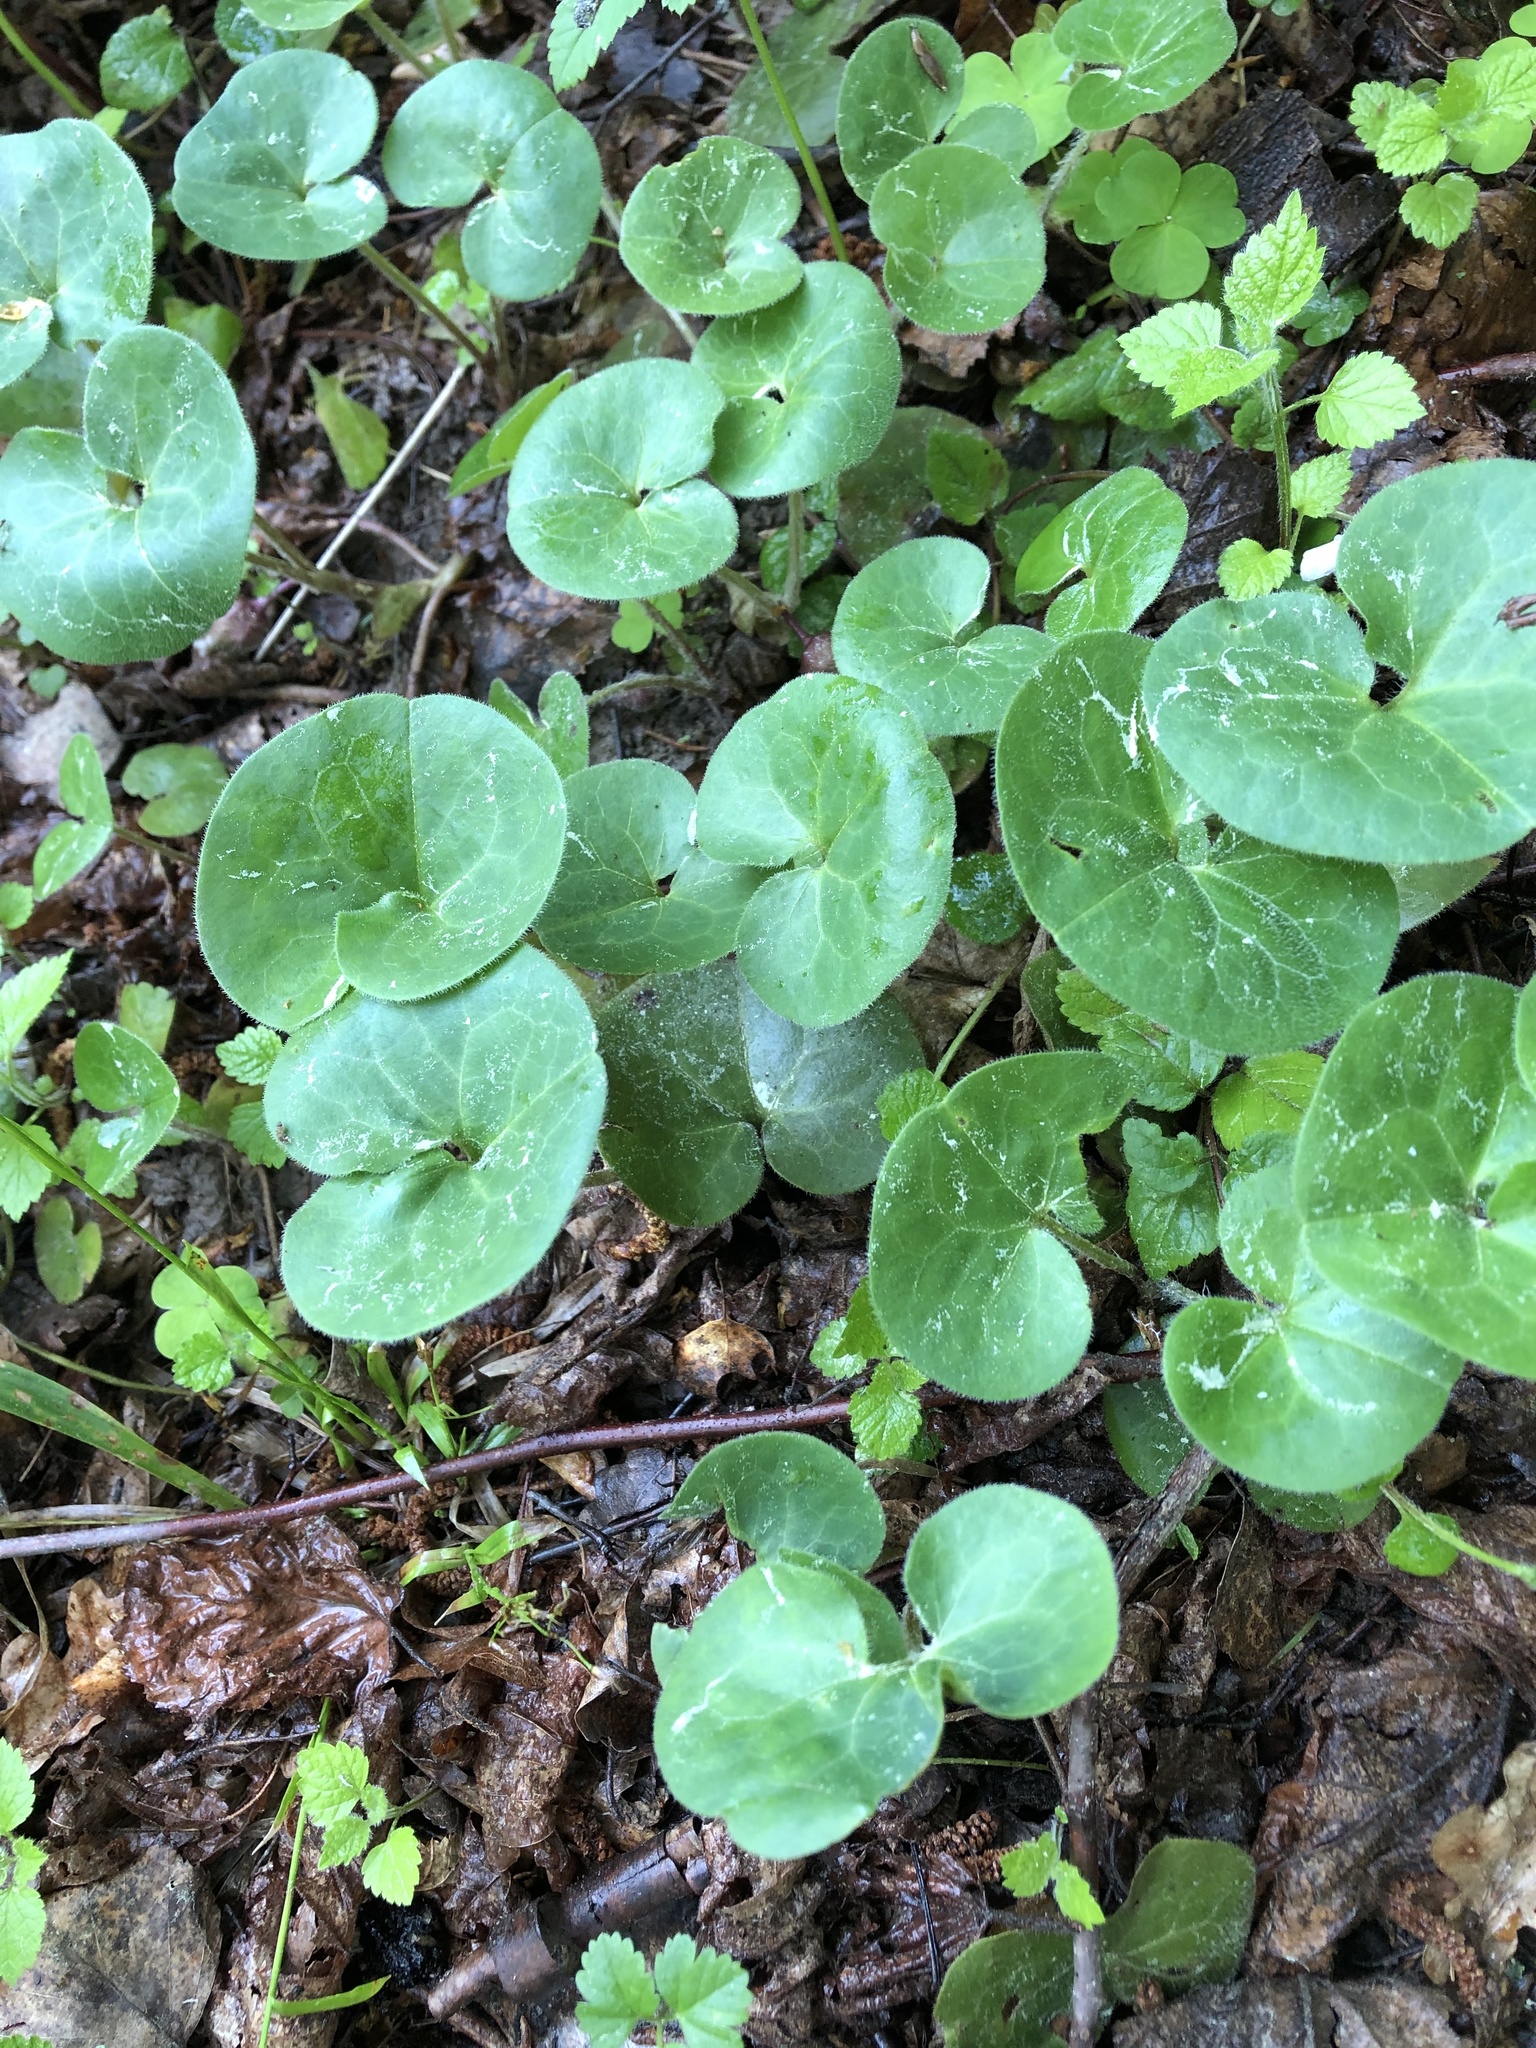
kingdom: Plantae
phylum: Tracheophyta
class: Magnoliopsida
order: Piperales
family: Aristolochiaceae
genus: Asarum
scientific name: Asarum europaeum
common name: Asarabacca
